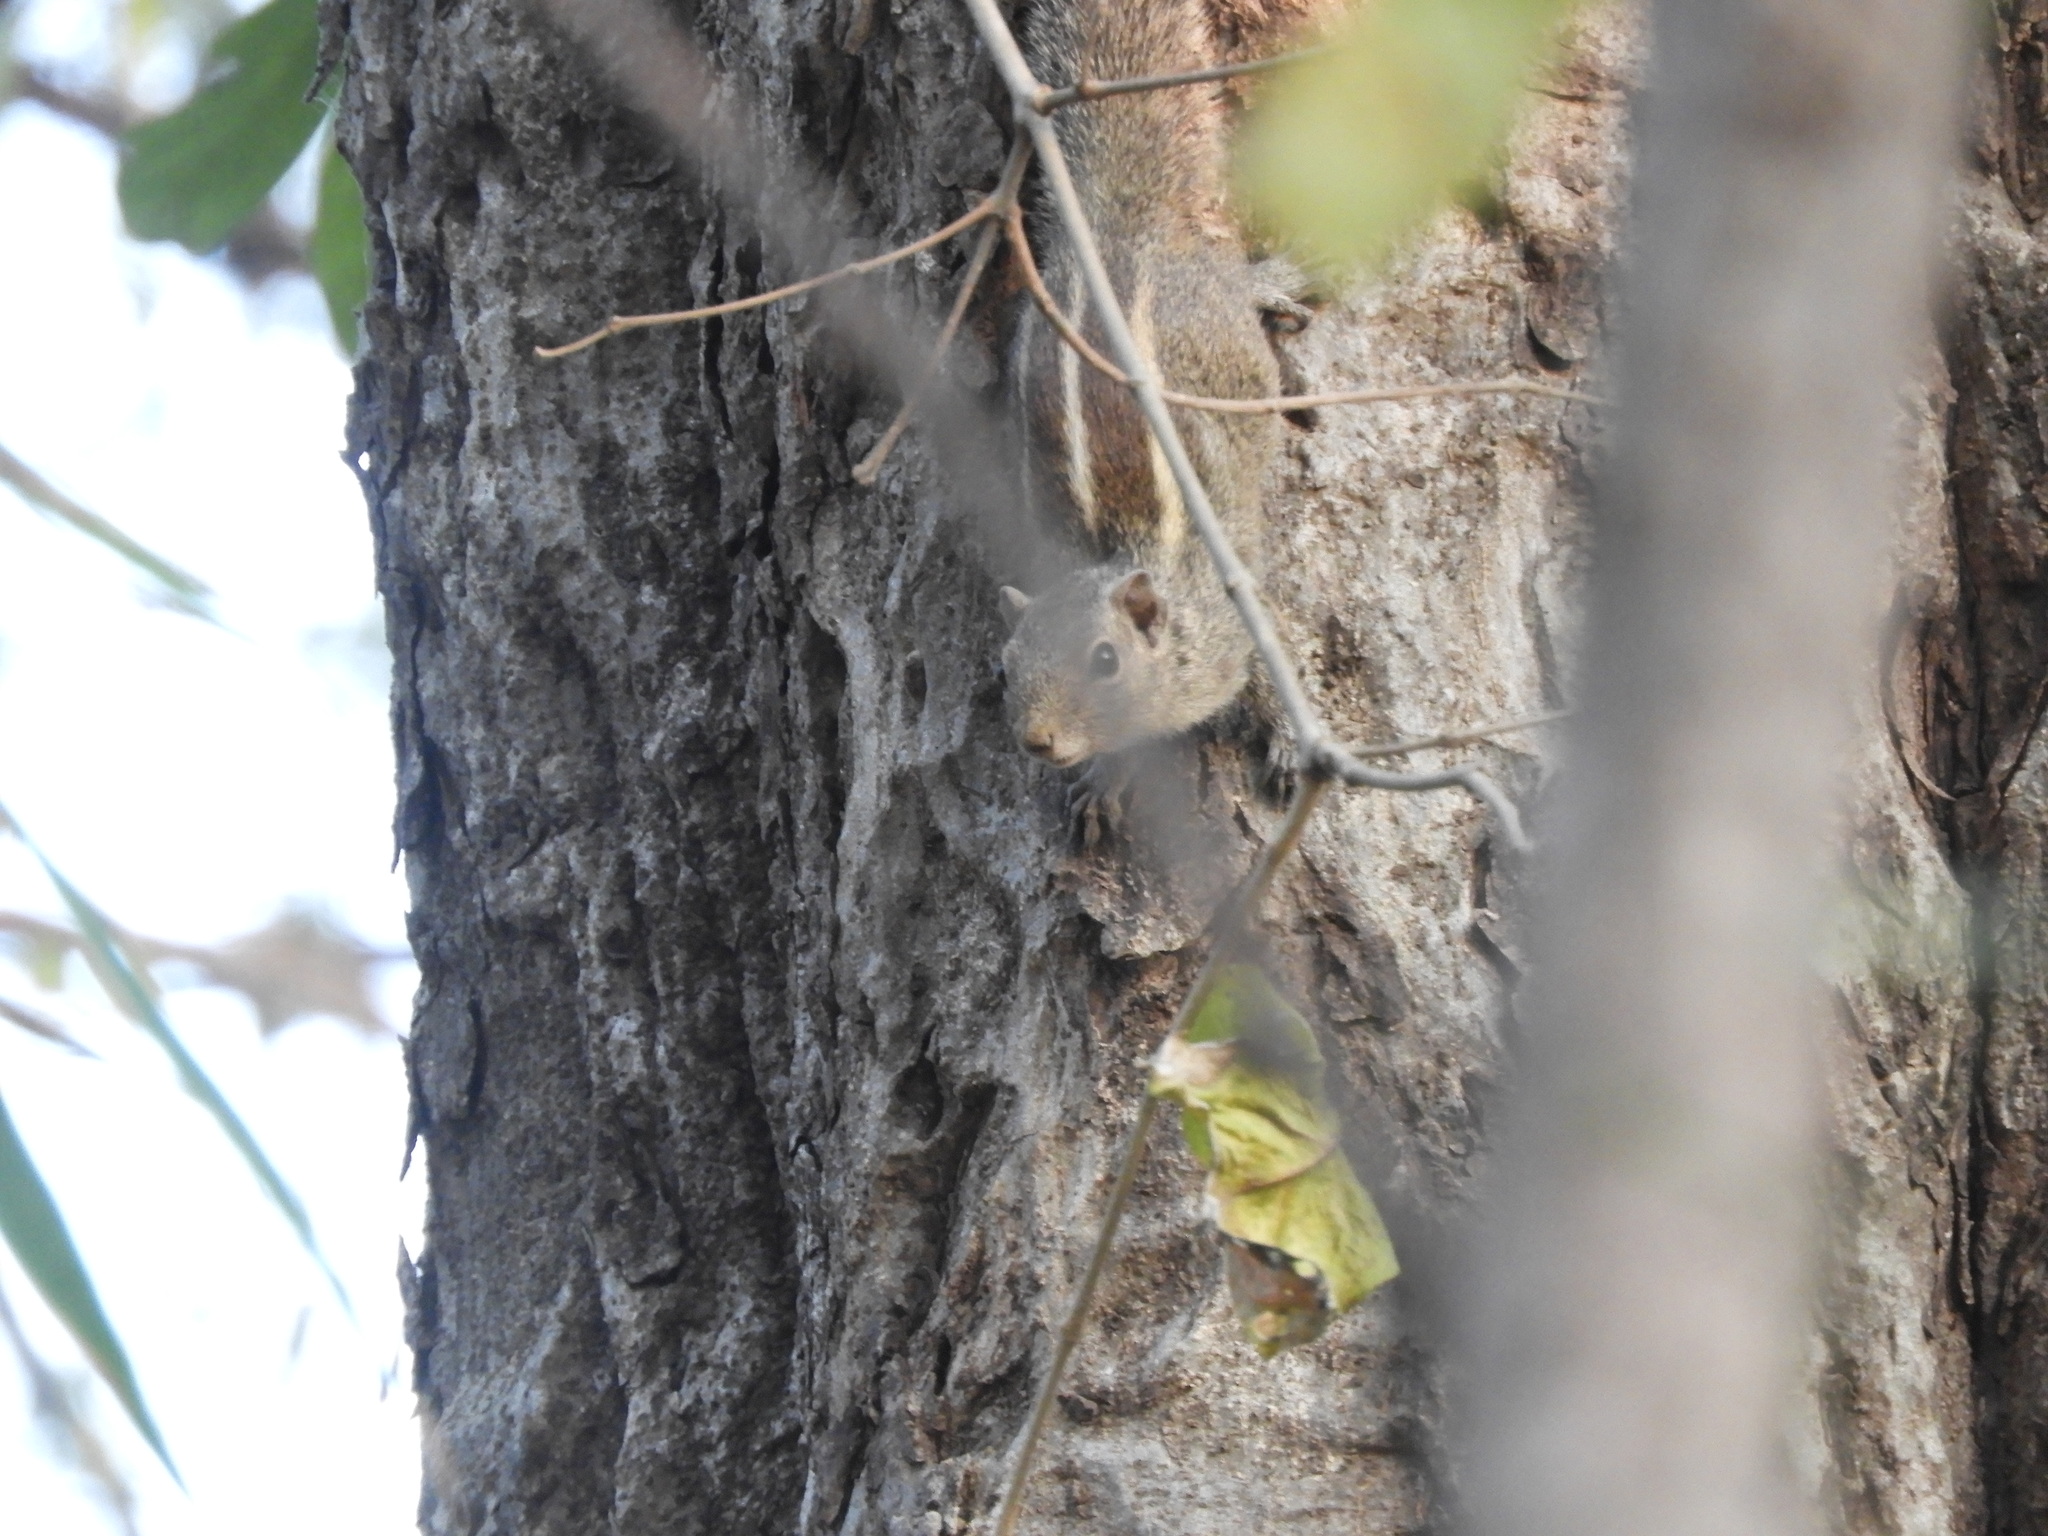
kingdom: Animalia
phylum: Chordata
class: Mammalia
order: Rodentia
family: Sciuridae
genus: Funambulus
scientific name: Funambulus palmarum
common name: Indian palm squirrel
